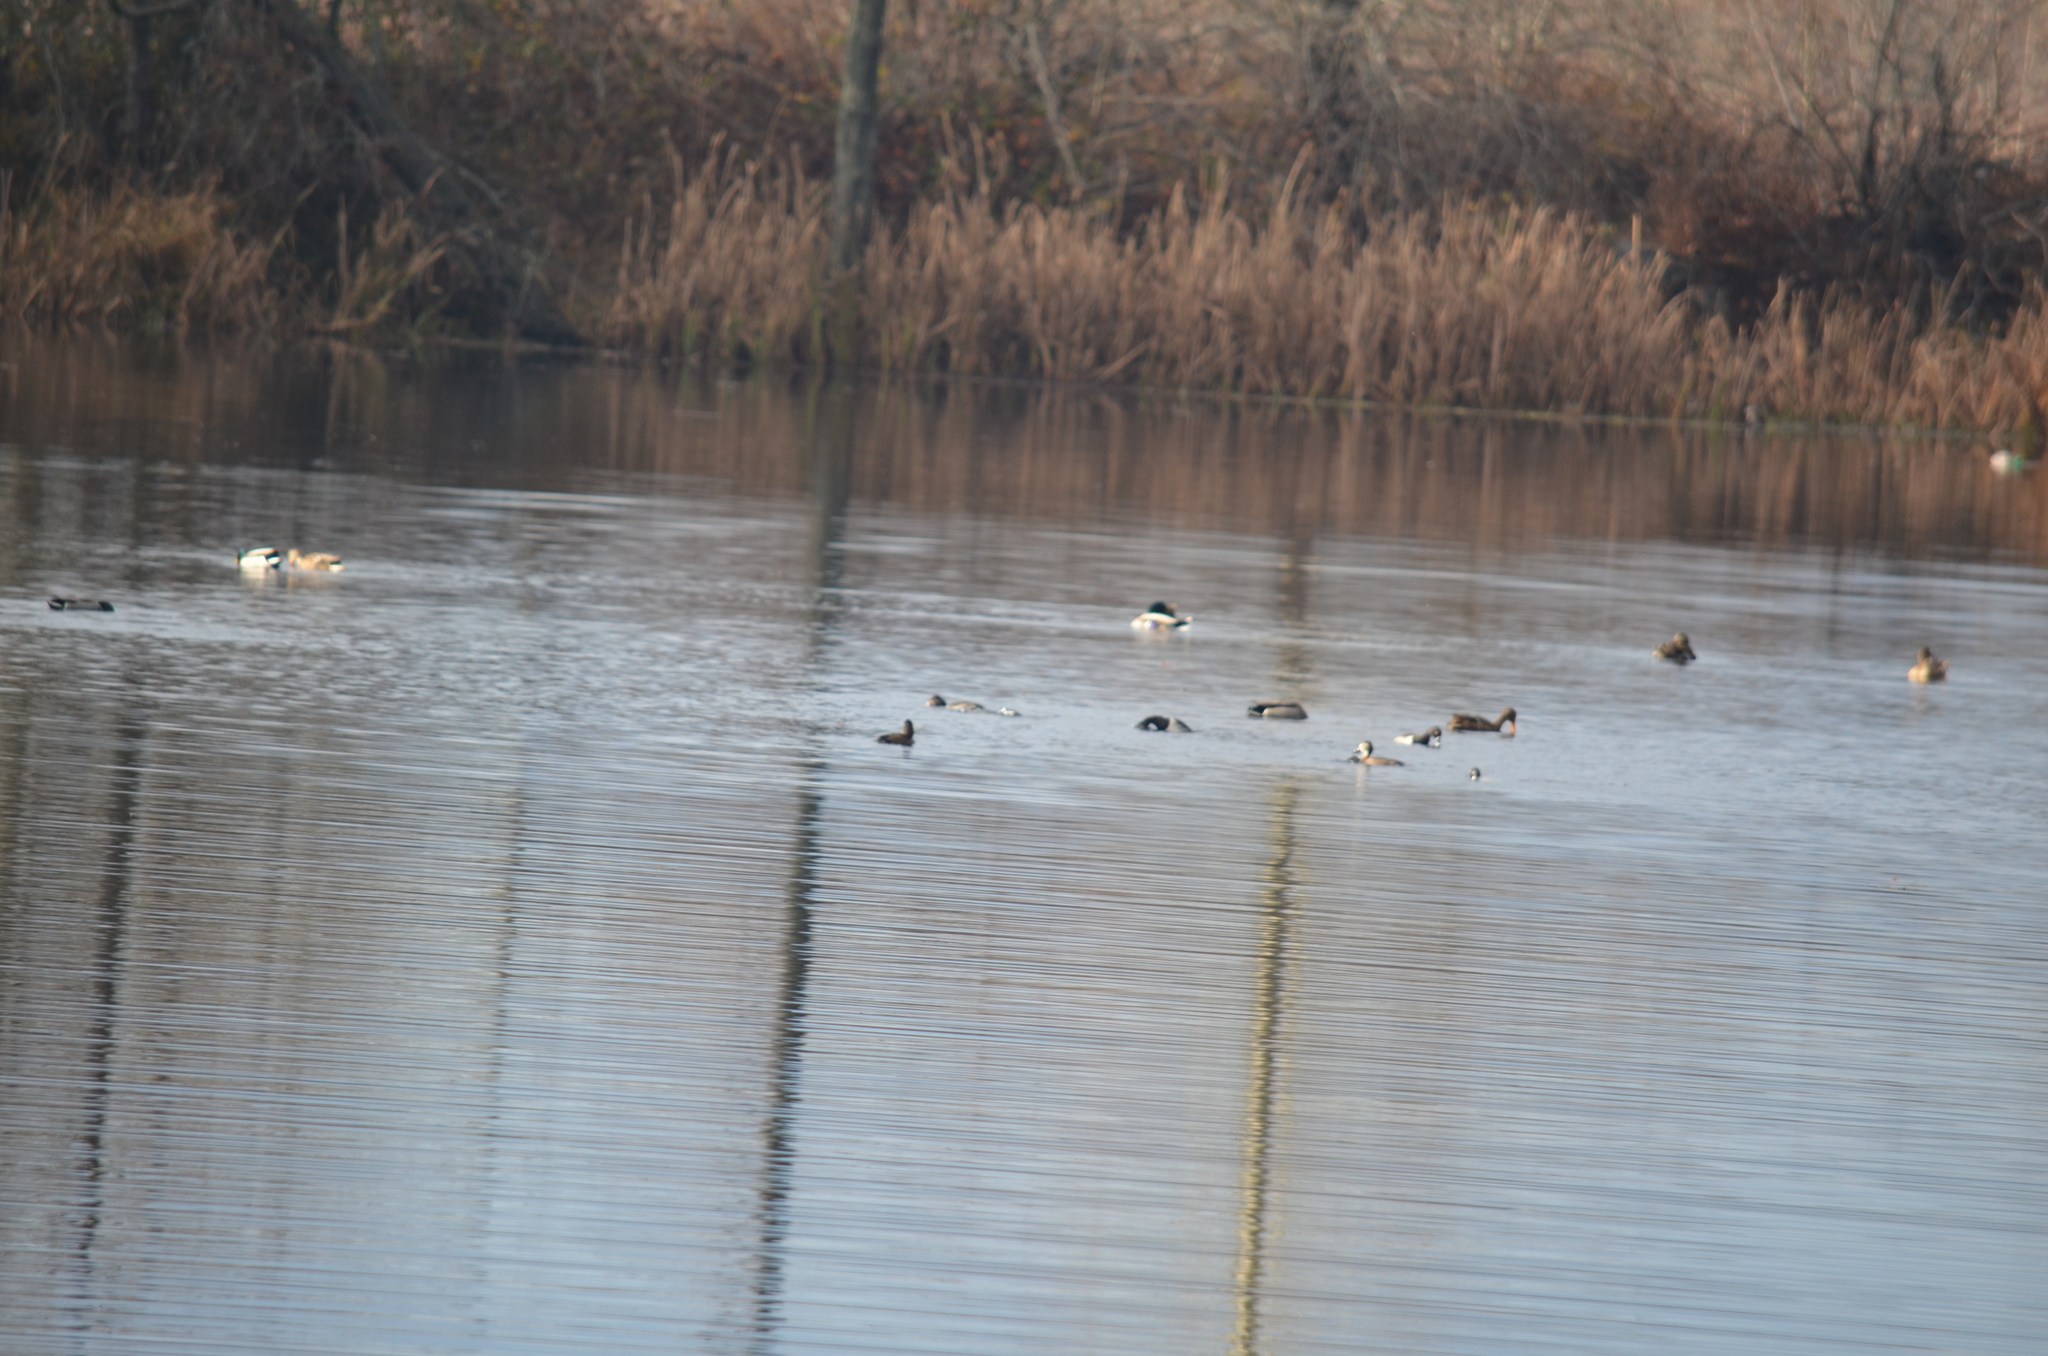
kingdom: Animalia
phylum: Chordata
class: Aves
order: Anseriformes
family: Anatidae
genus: Anas
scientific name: Anas platyrhynchos
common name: Mallard
